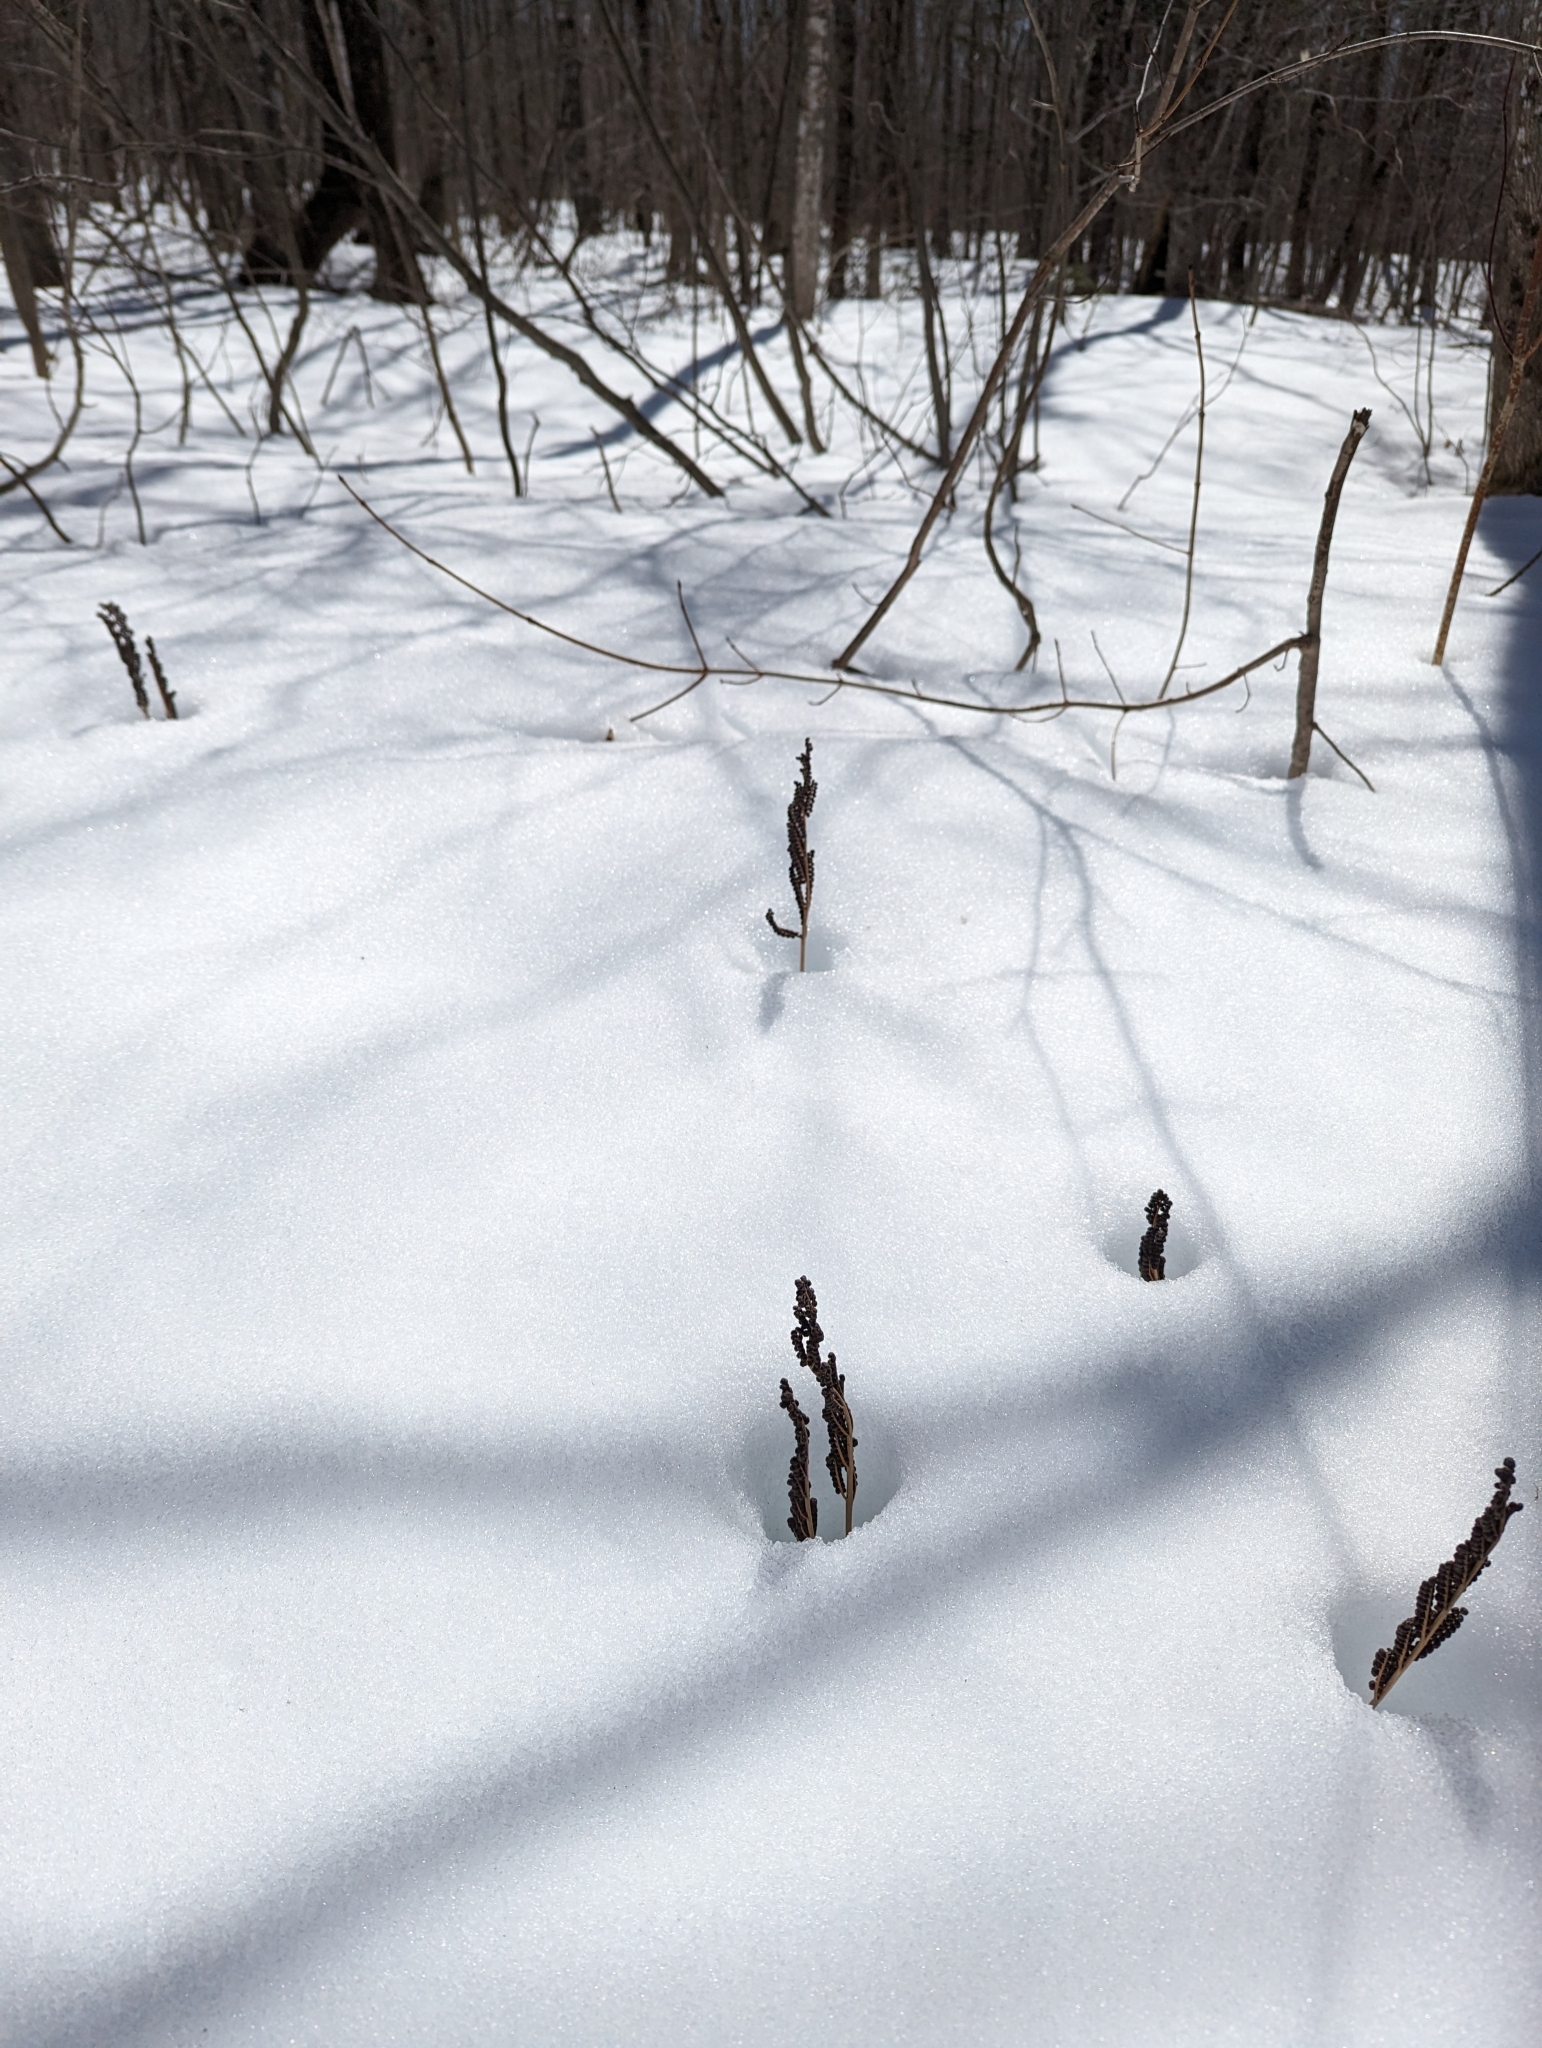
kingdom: Plantae
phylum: Tracheophyta
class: Polypodiopsida
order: Polypodiales
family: Onocleaceae
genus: Onoclea
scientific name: Onoclea sensibilis
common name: Sensitive fern
